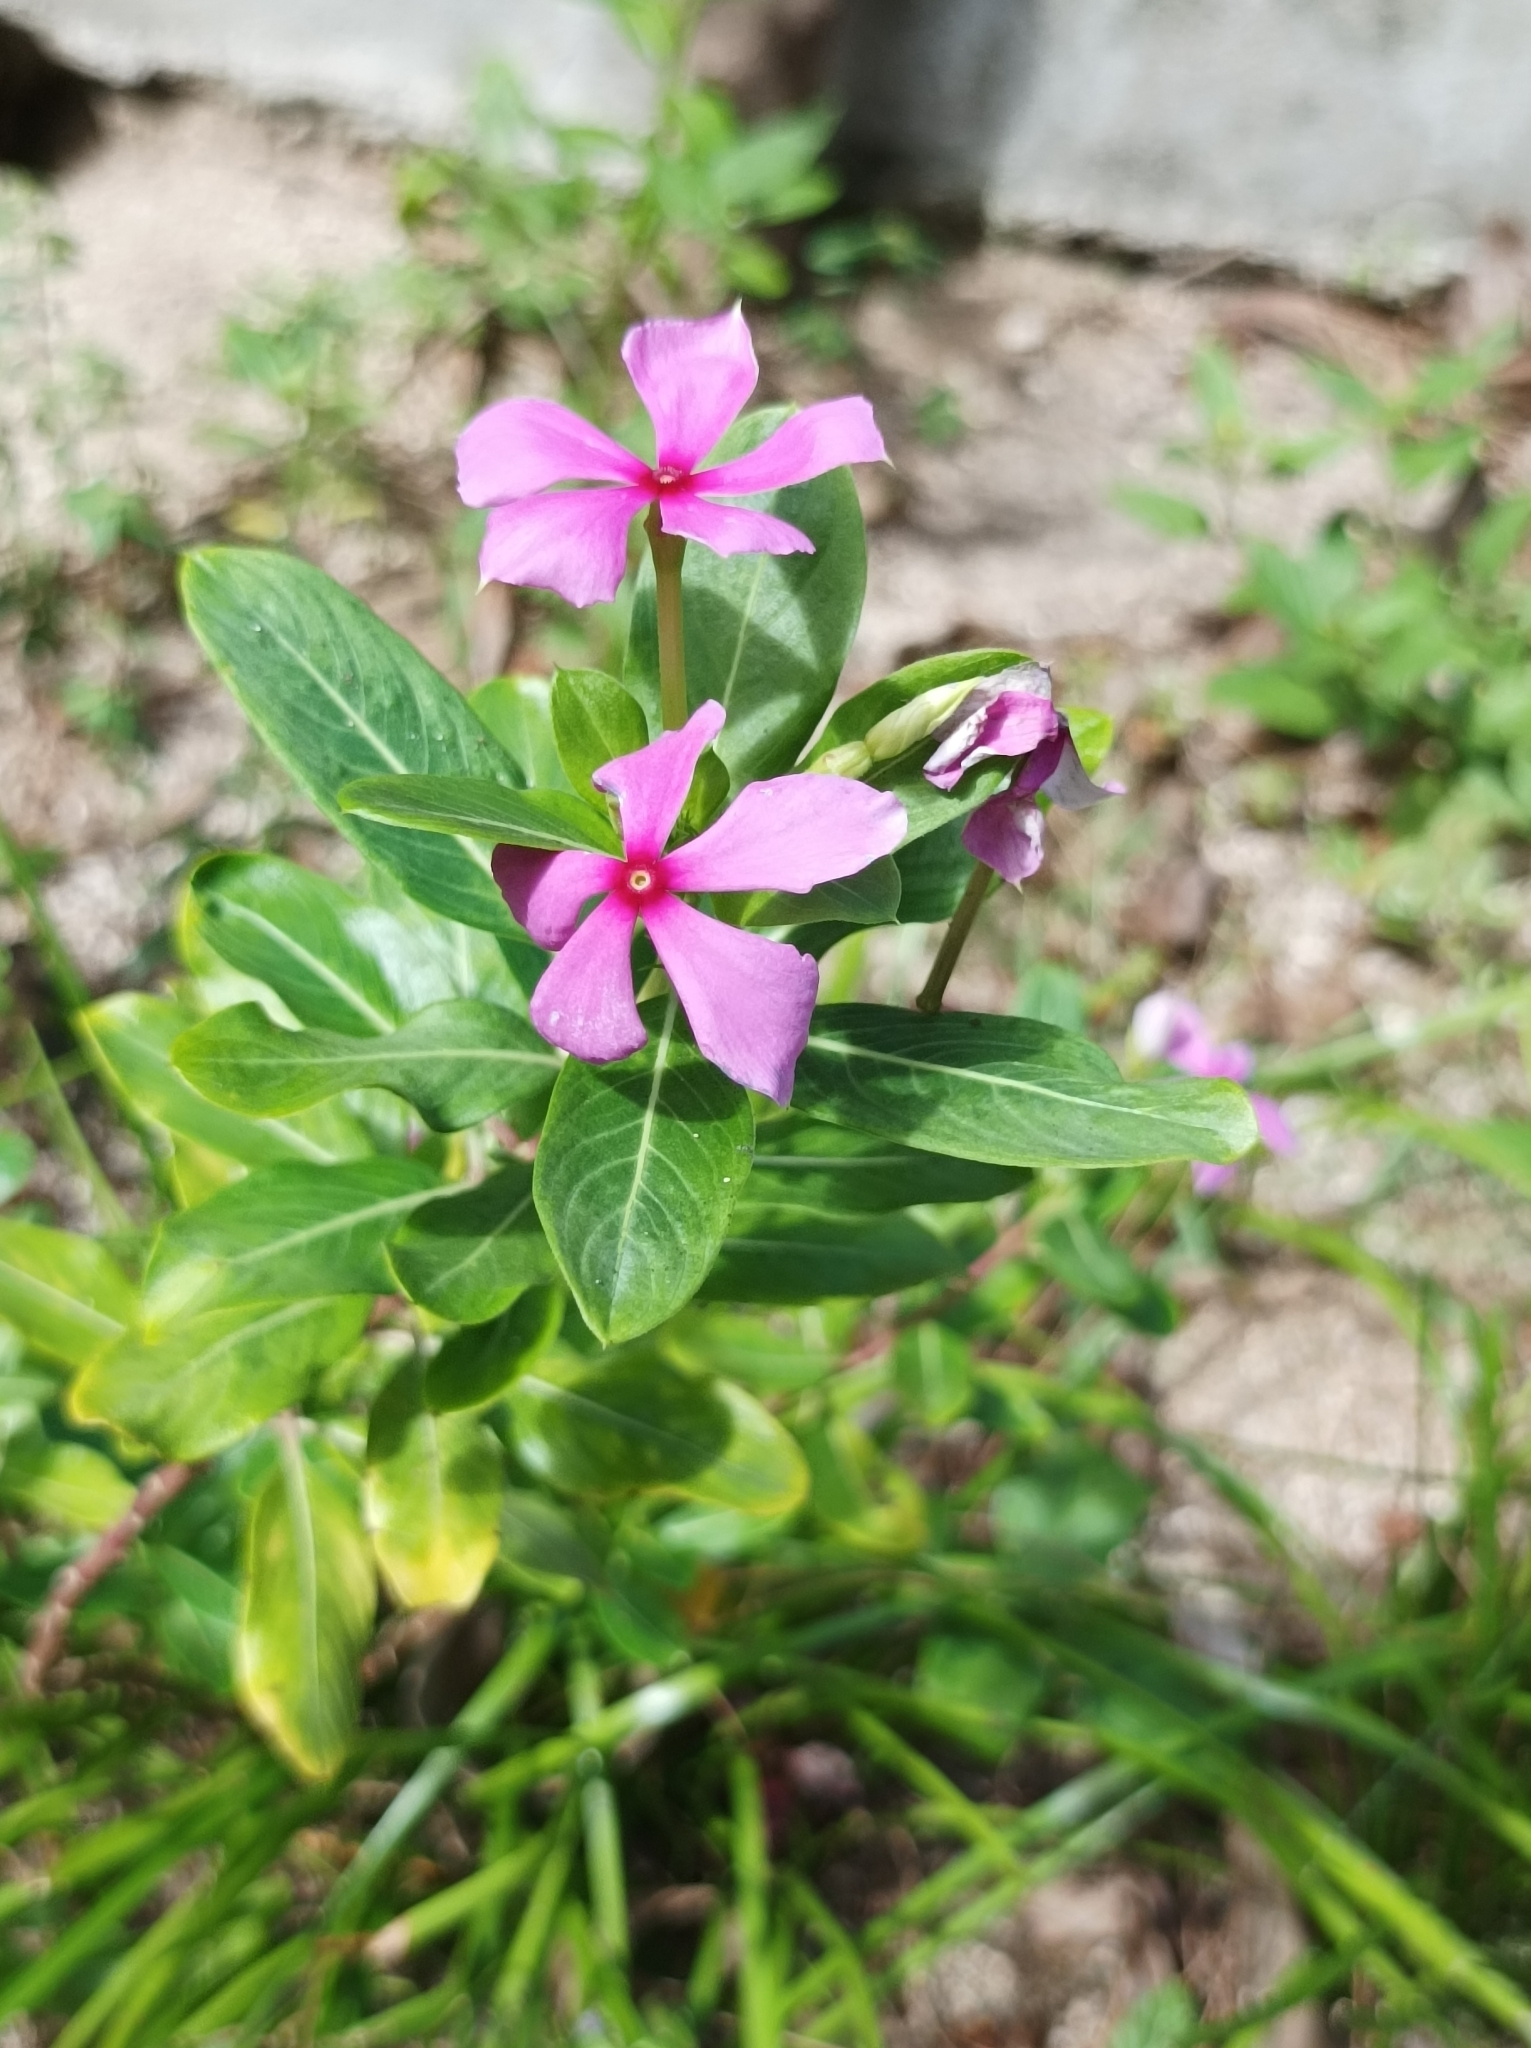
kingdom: Plantae
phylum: Tracheophyta
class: Magnoliopsida
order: Gentianales
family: Apocynaceae
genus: Catharanthus
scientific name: Catharanthus roseus
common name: Madagascar periwinkle
